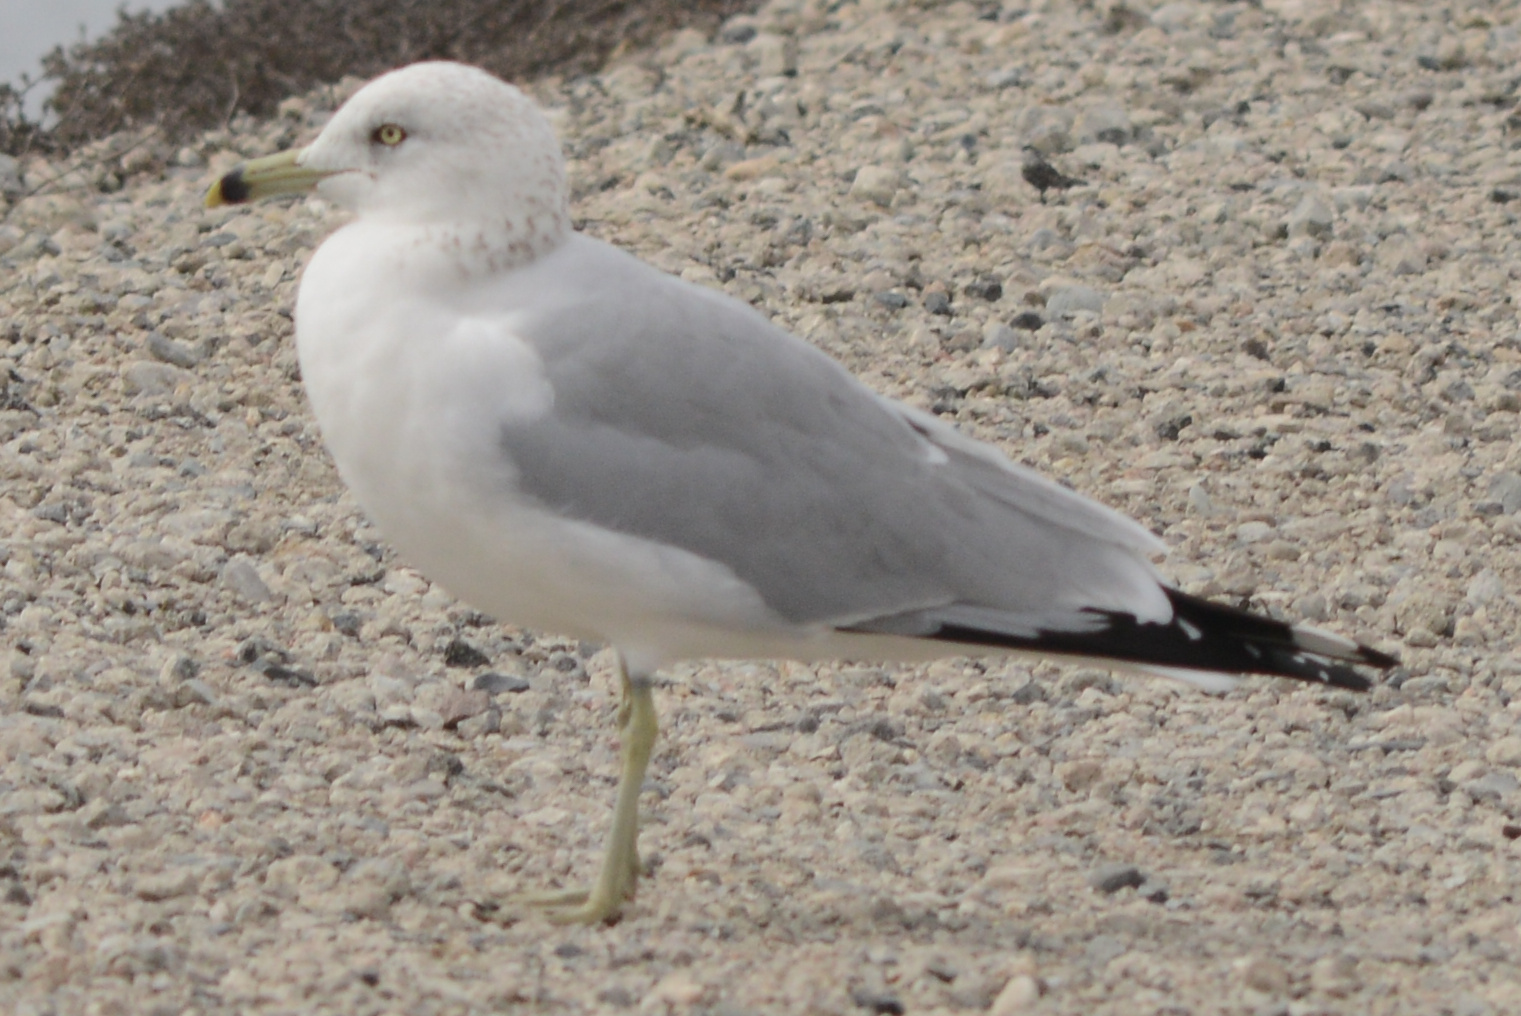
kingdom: Animalia
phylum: Chordata
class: Aves
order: Charadriiformes
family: Laridae
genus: Larus
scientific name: Larus delawarensis
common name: Ring-billed gull
